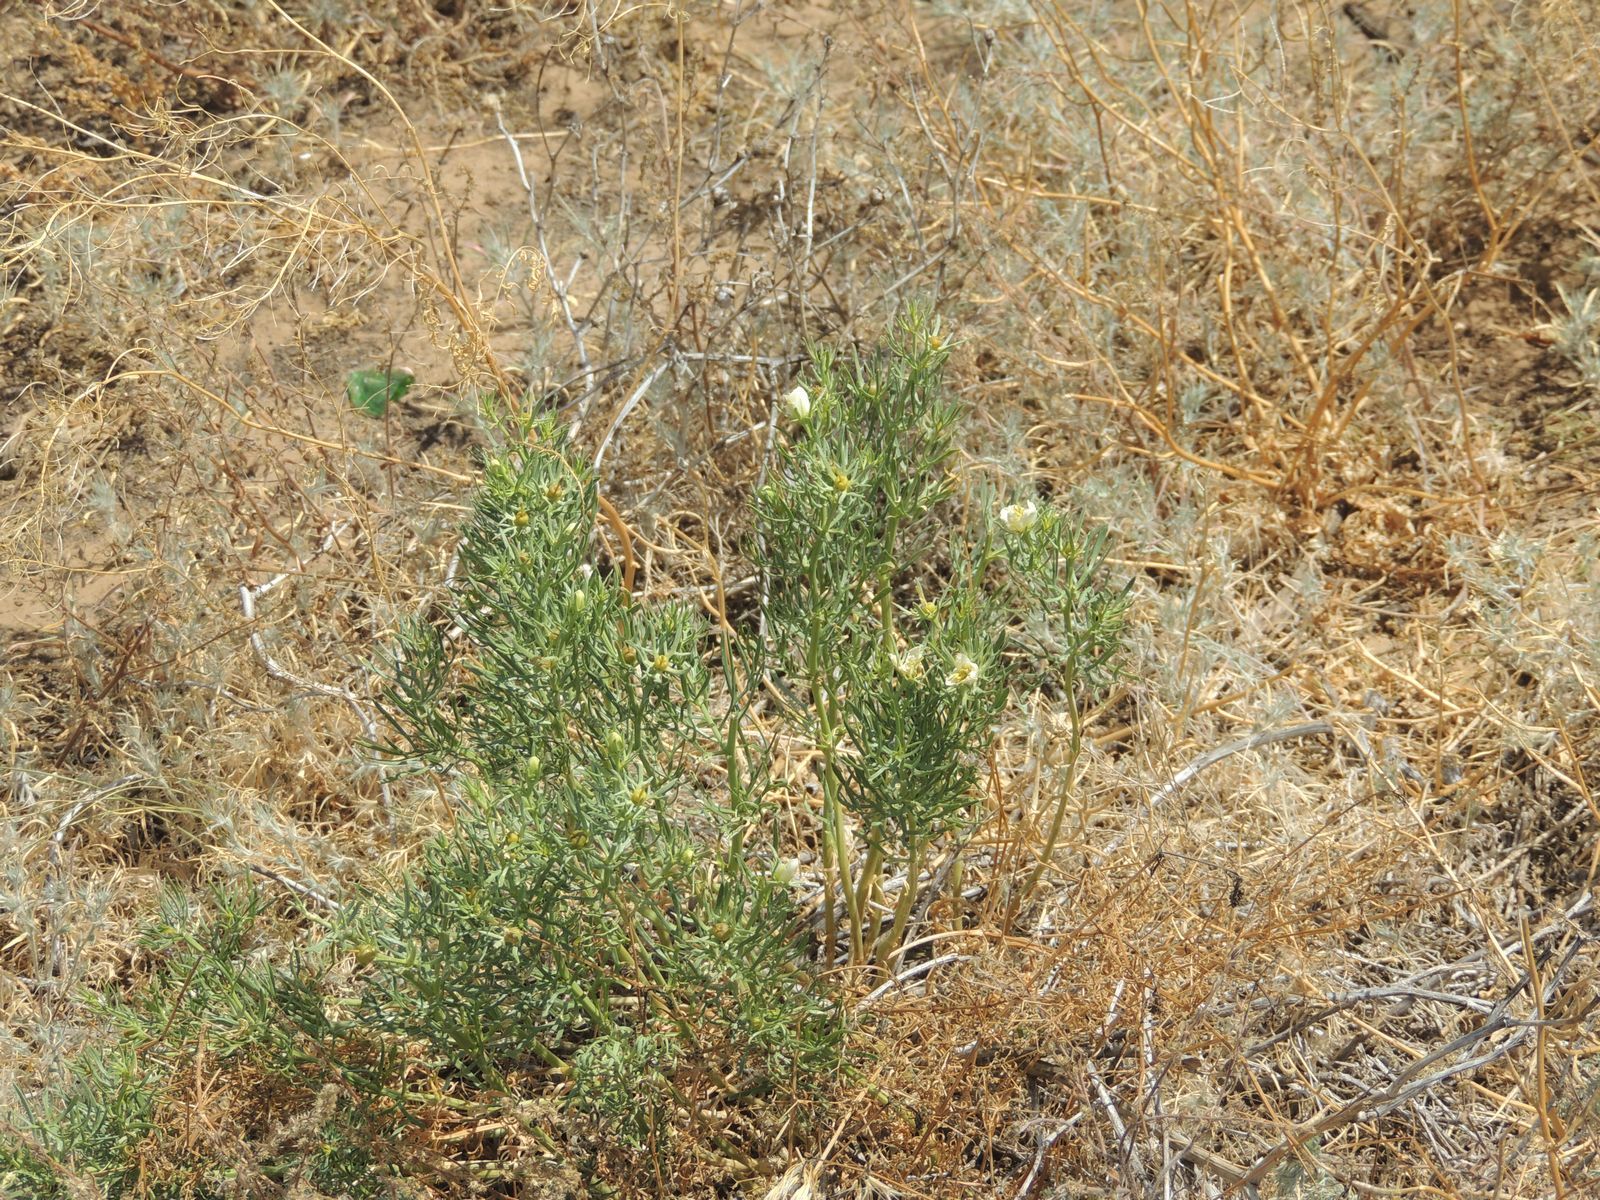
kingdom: Plantae
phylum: Tracheophyta
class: Magnoliopsida
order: Sapindales
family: Tetradiclidaceae
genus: Peganum
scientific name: Peganum harmala
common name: Harmal peganum
